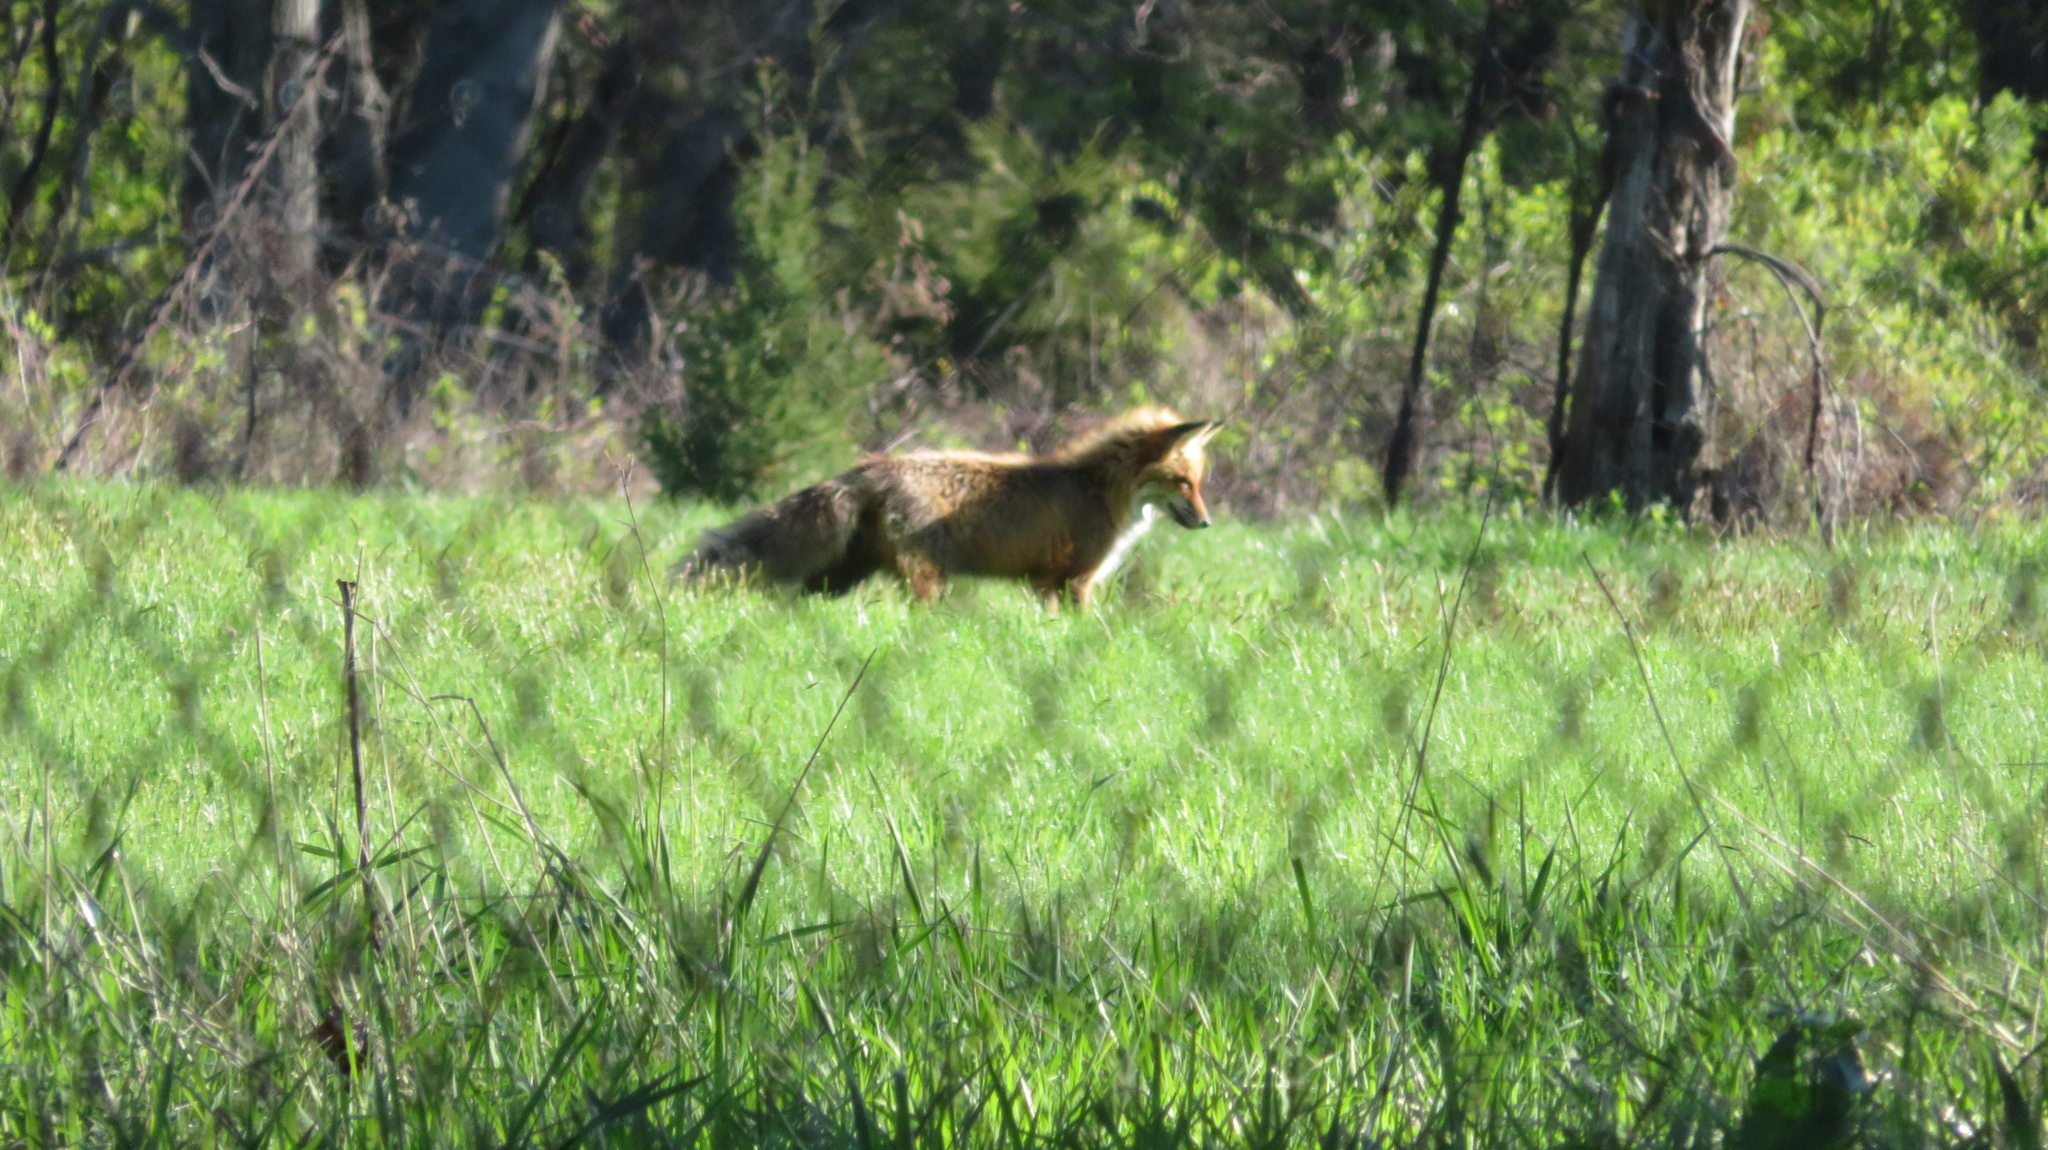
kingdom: Animalia
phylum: Chordata
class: Mammalia
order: Carnivora
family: Canidae
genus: Vulpes
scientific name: Vulpes vulpes
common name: Red fox
